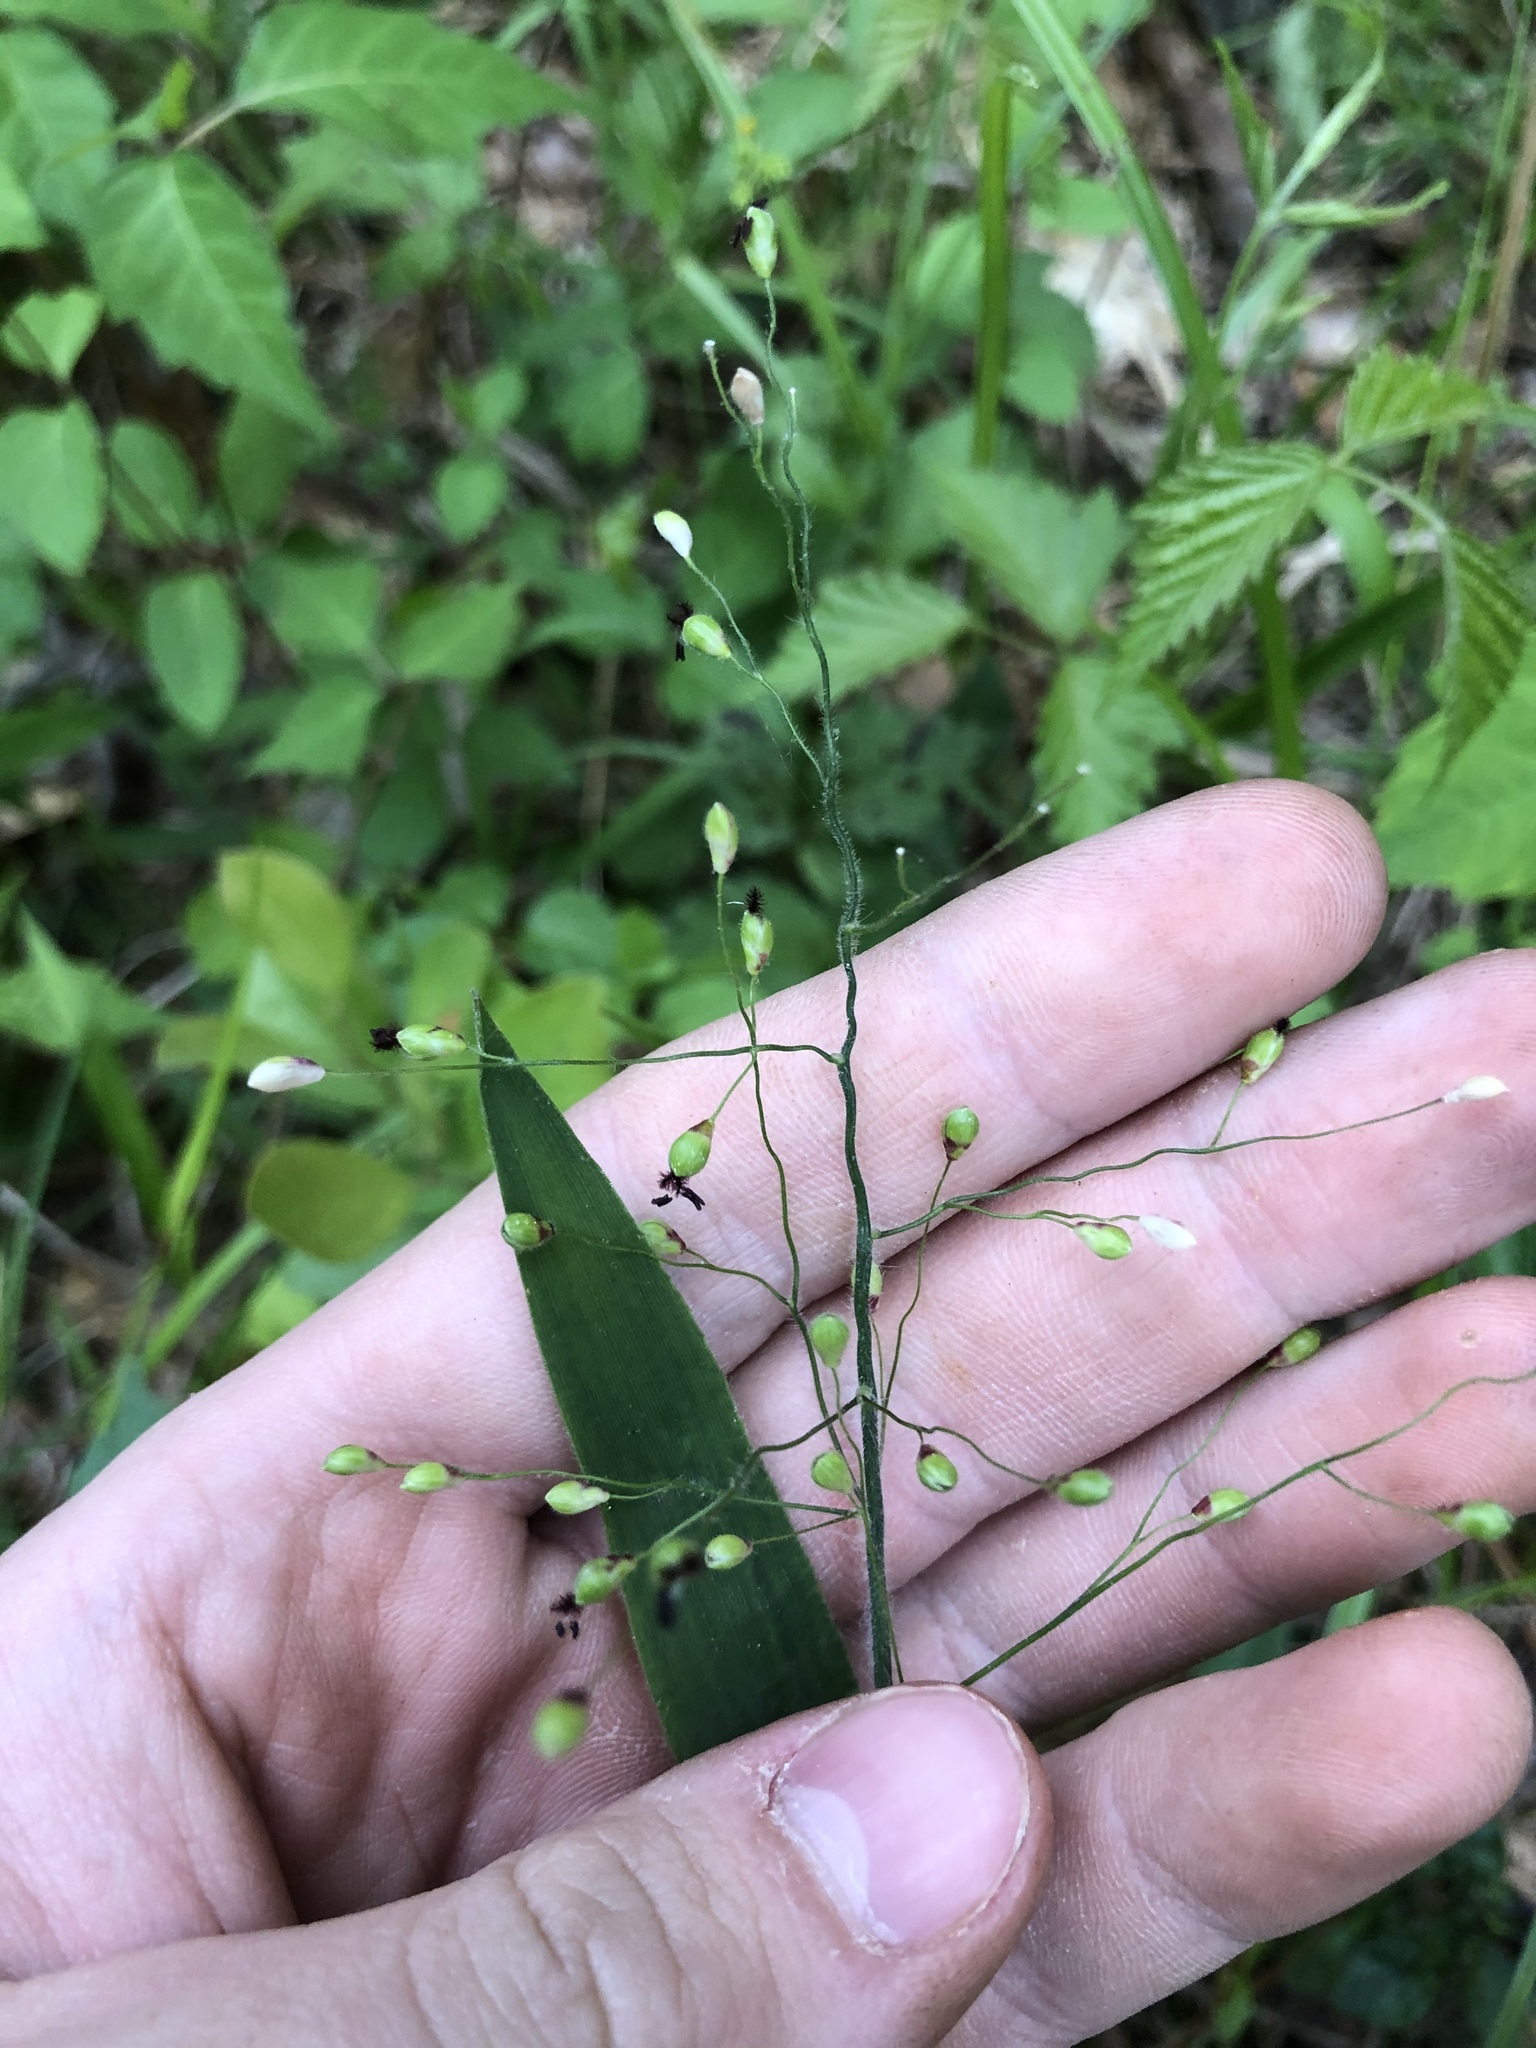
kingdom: Plantae
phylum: Tracheophyta
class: Liliopsida
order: Poales
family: Poaceae
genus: Dichanthelium
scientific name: Dichanthelium ravenelii
